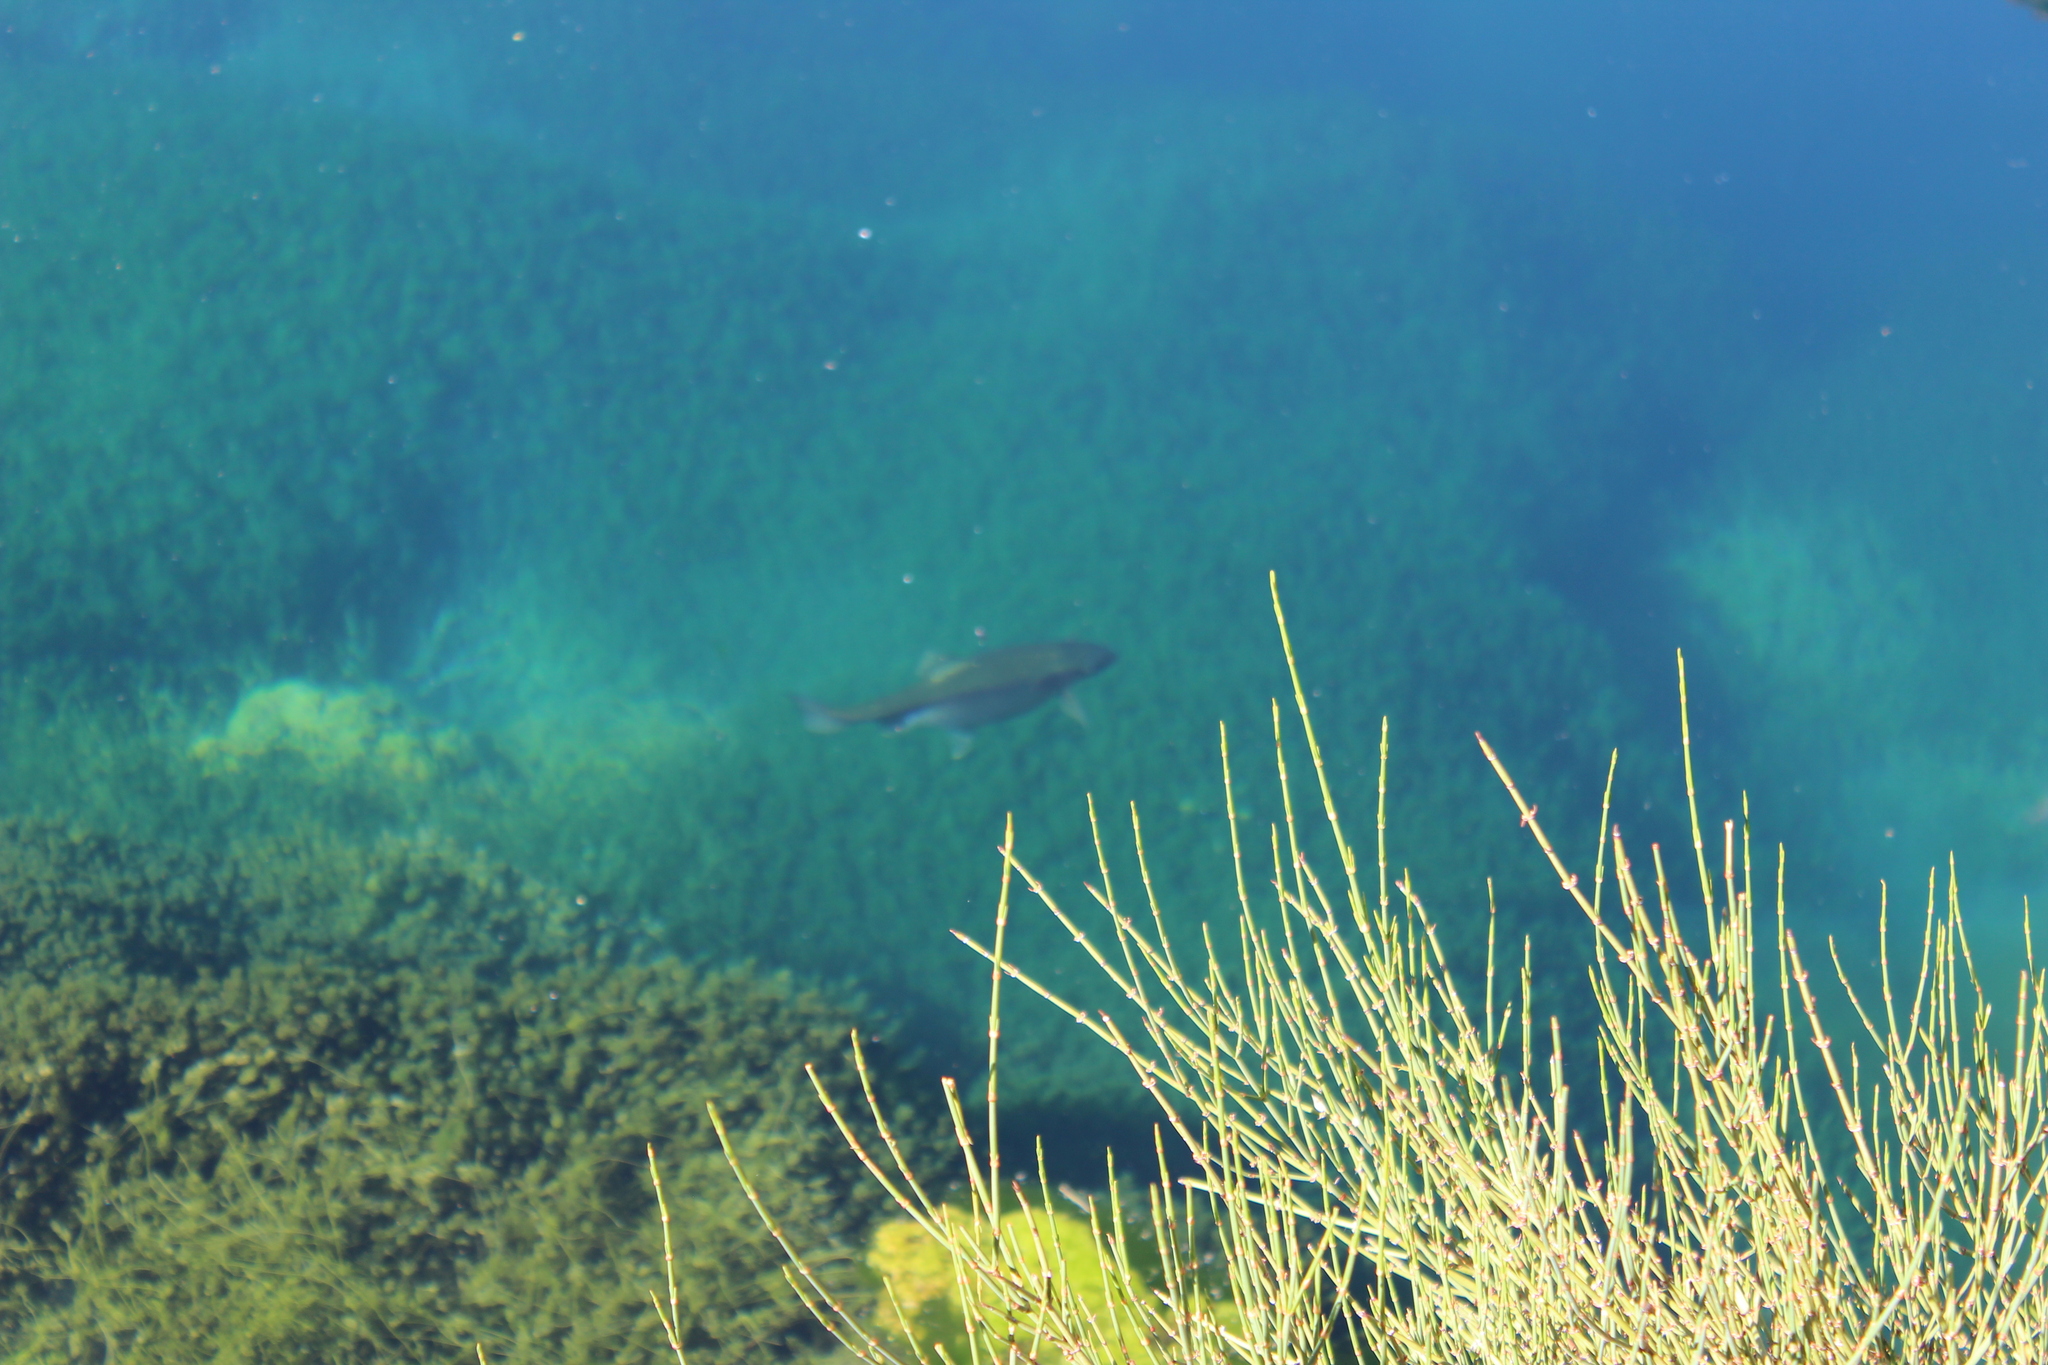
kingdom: Animalia
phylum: Chordata
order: Salmoniformes
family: Salmonidae
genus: Oncorhynchus
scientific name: Oncorhynchus mykiss
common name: Rainbow trout
